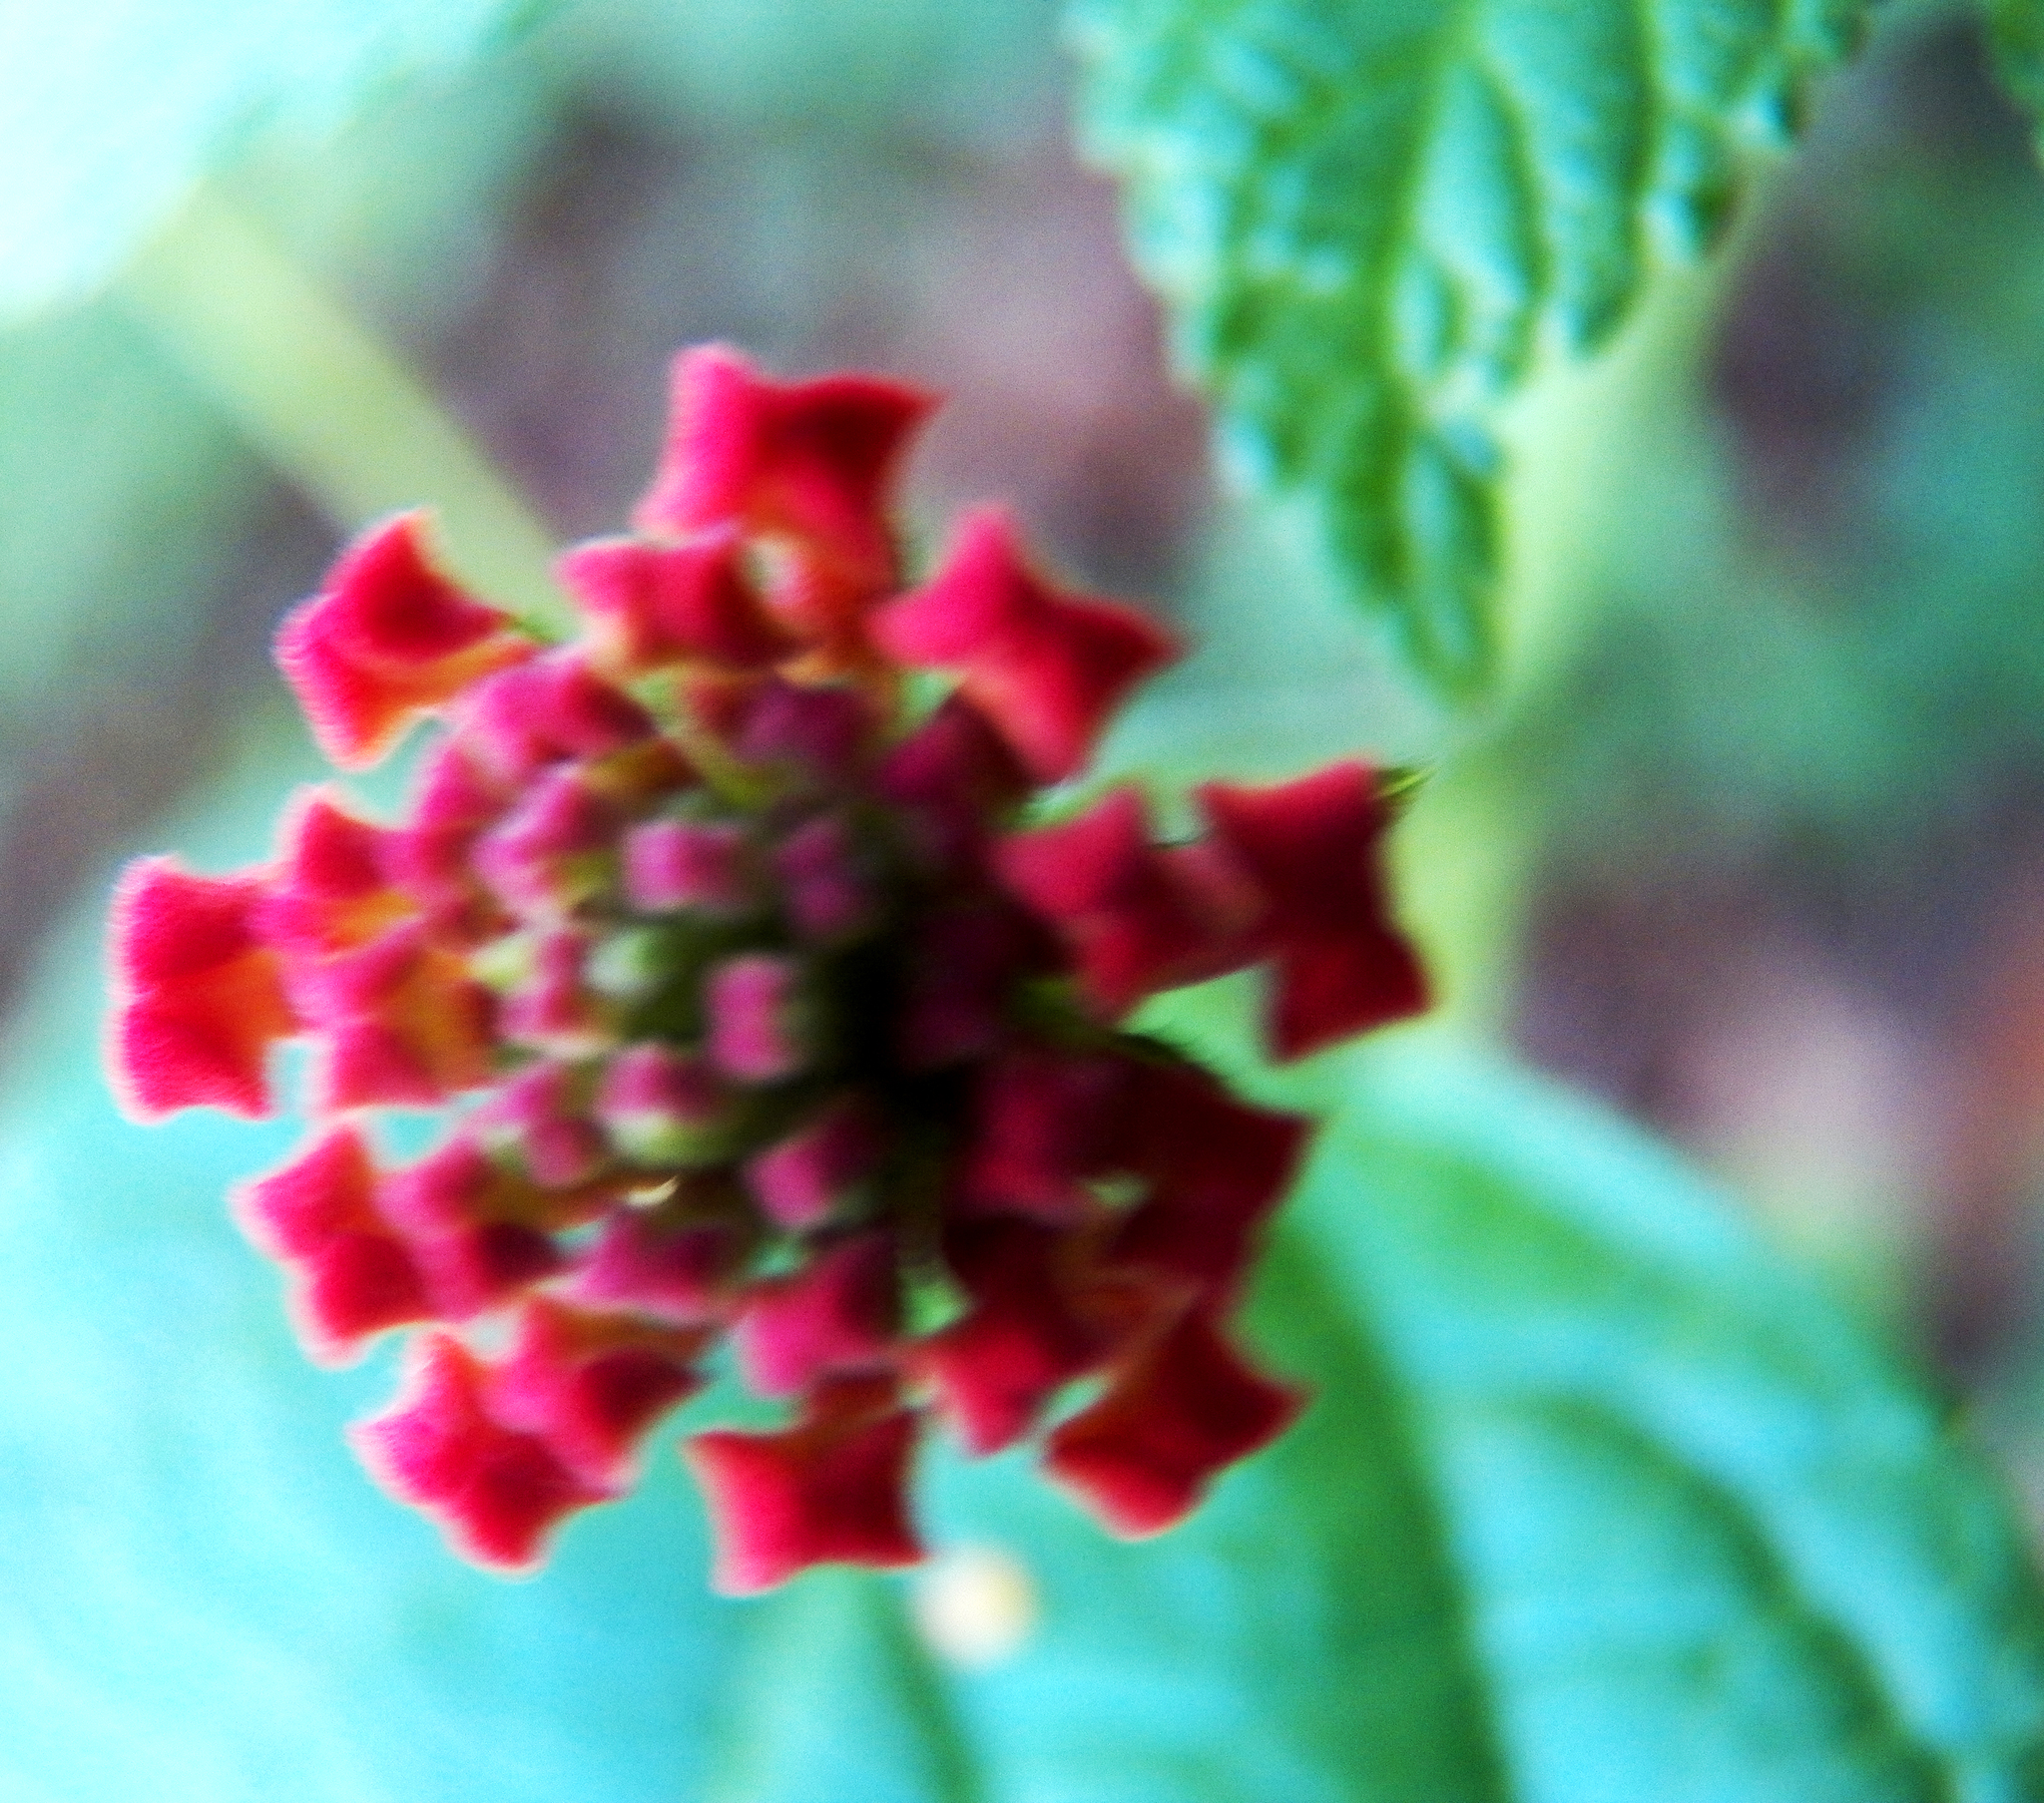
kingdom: Plantae
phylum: Tracheophyta
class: Magnoliopsida
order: Lamiales
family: Verbenaceae
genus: Lantana
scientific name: Lantana camara
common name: Lantana
